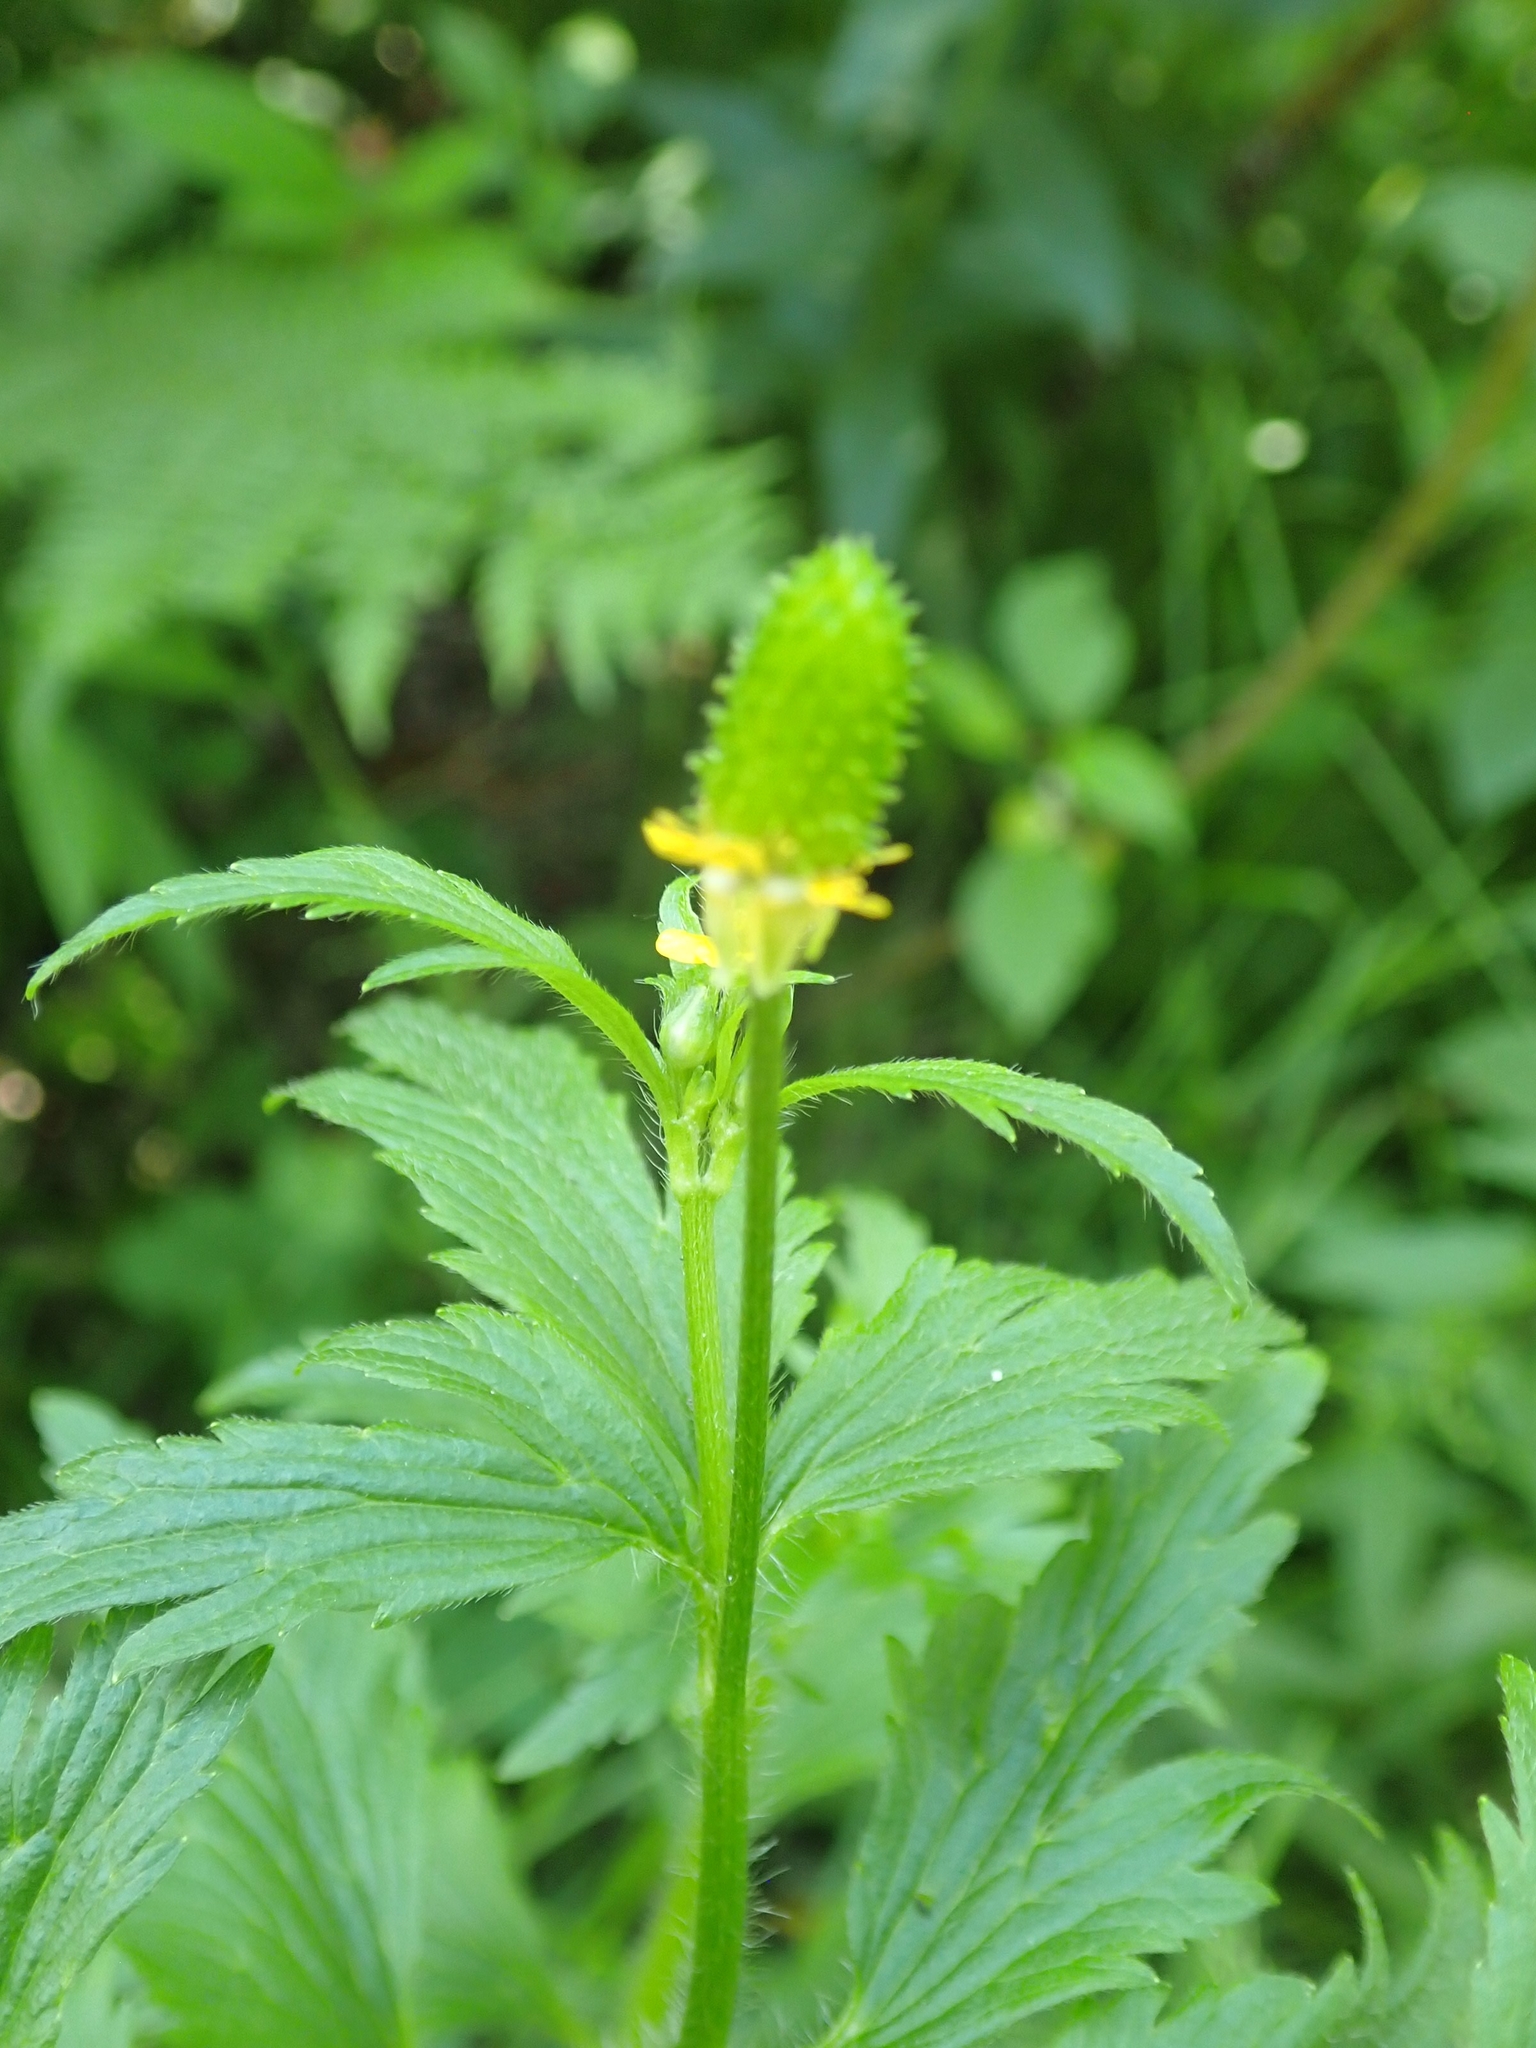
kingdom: Plantae
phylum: Tracheophyta
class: Magnoliopsida
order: Ranunculales
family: Ranunculaceae
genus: Ranunculus
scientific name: Ranunculus macounii
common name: Macoun's buttercup
